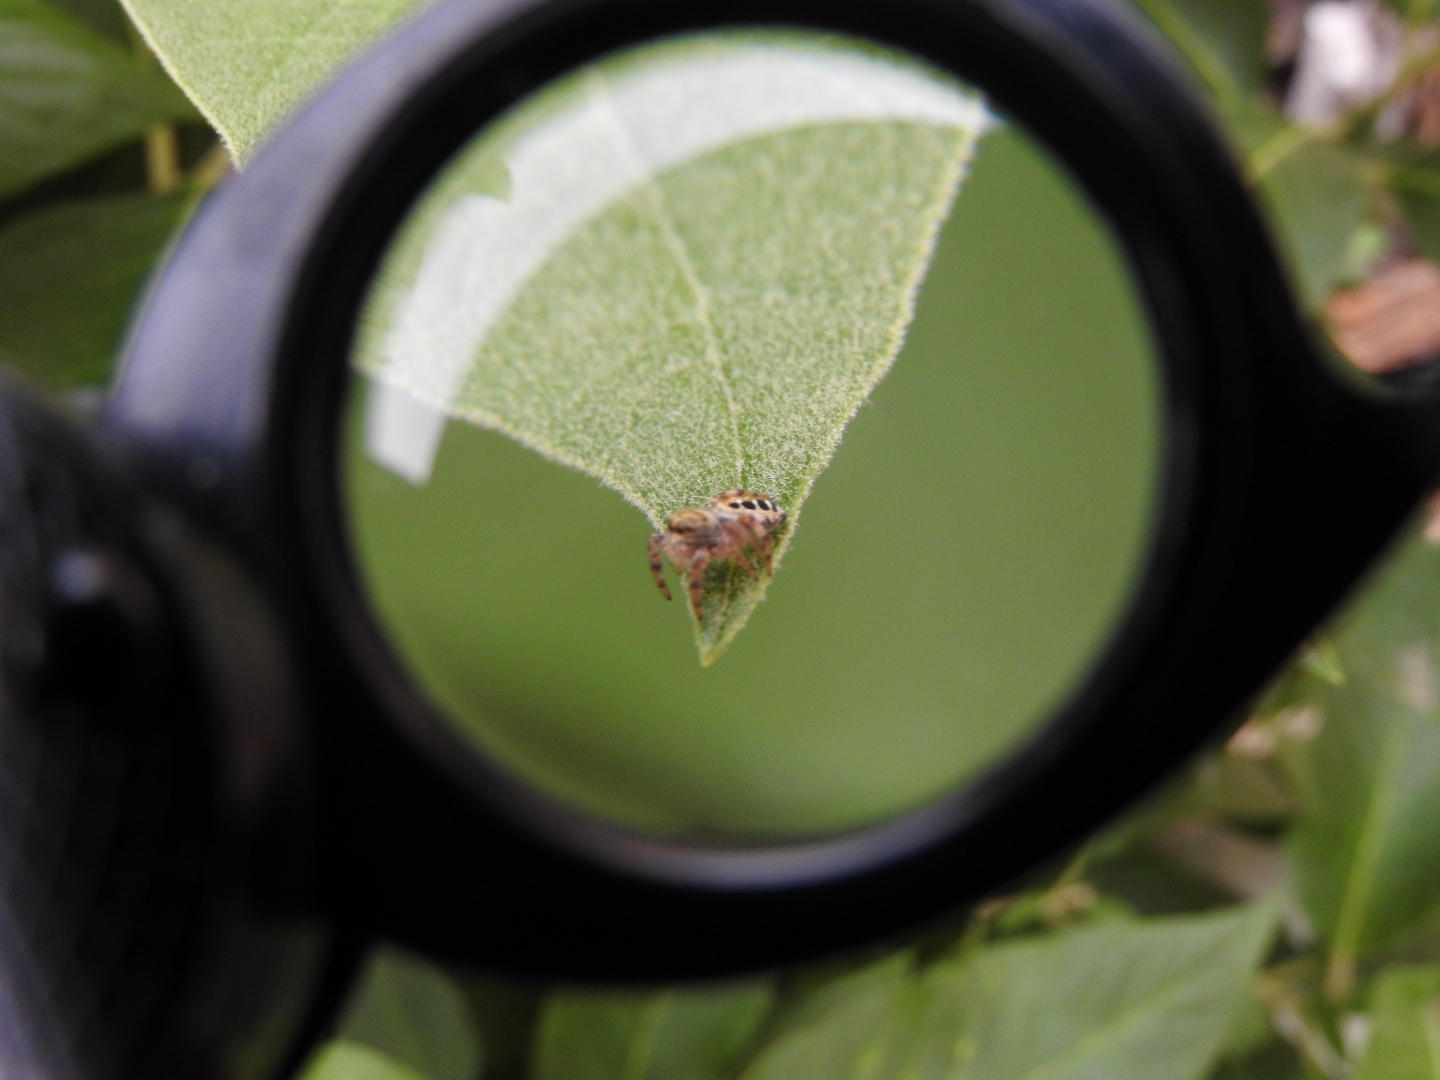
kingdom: Animalia
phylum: Arthropoda
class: Arachnida
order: Araneae
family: Salticidae
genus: Paraphidippus
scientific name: Paraphidippus aurantius
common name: Jumping spiders
